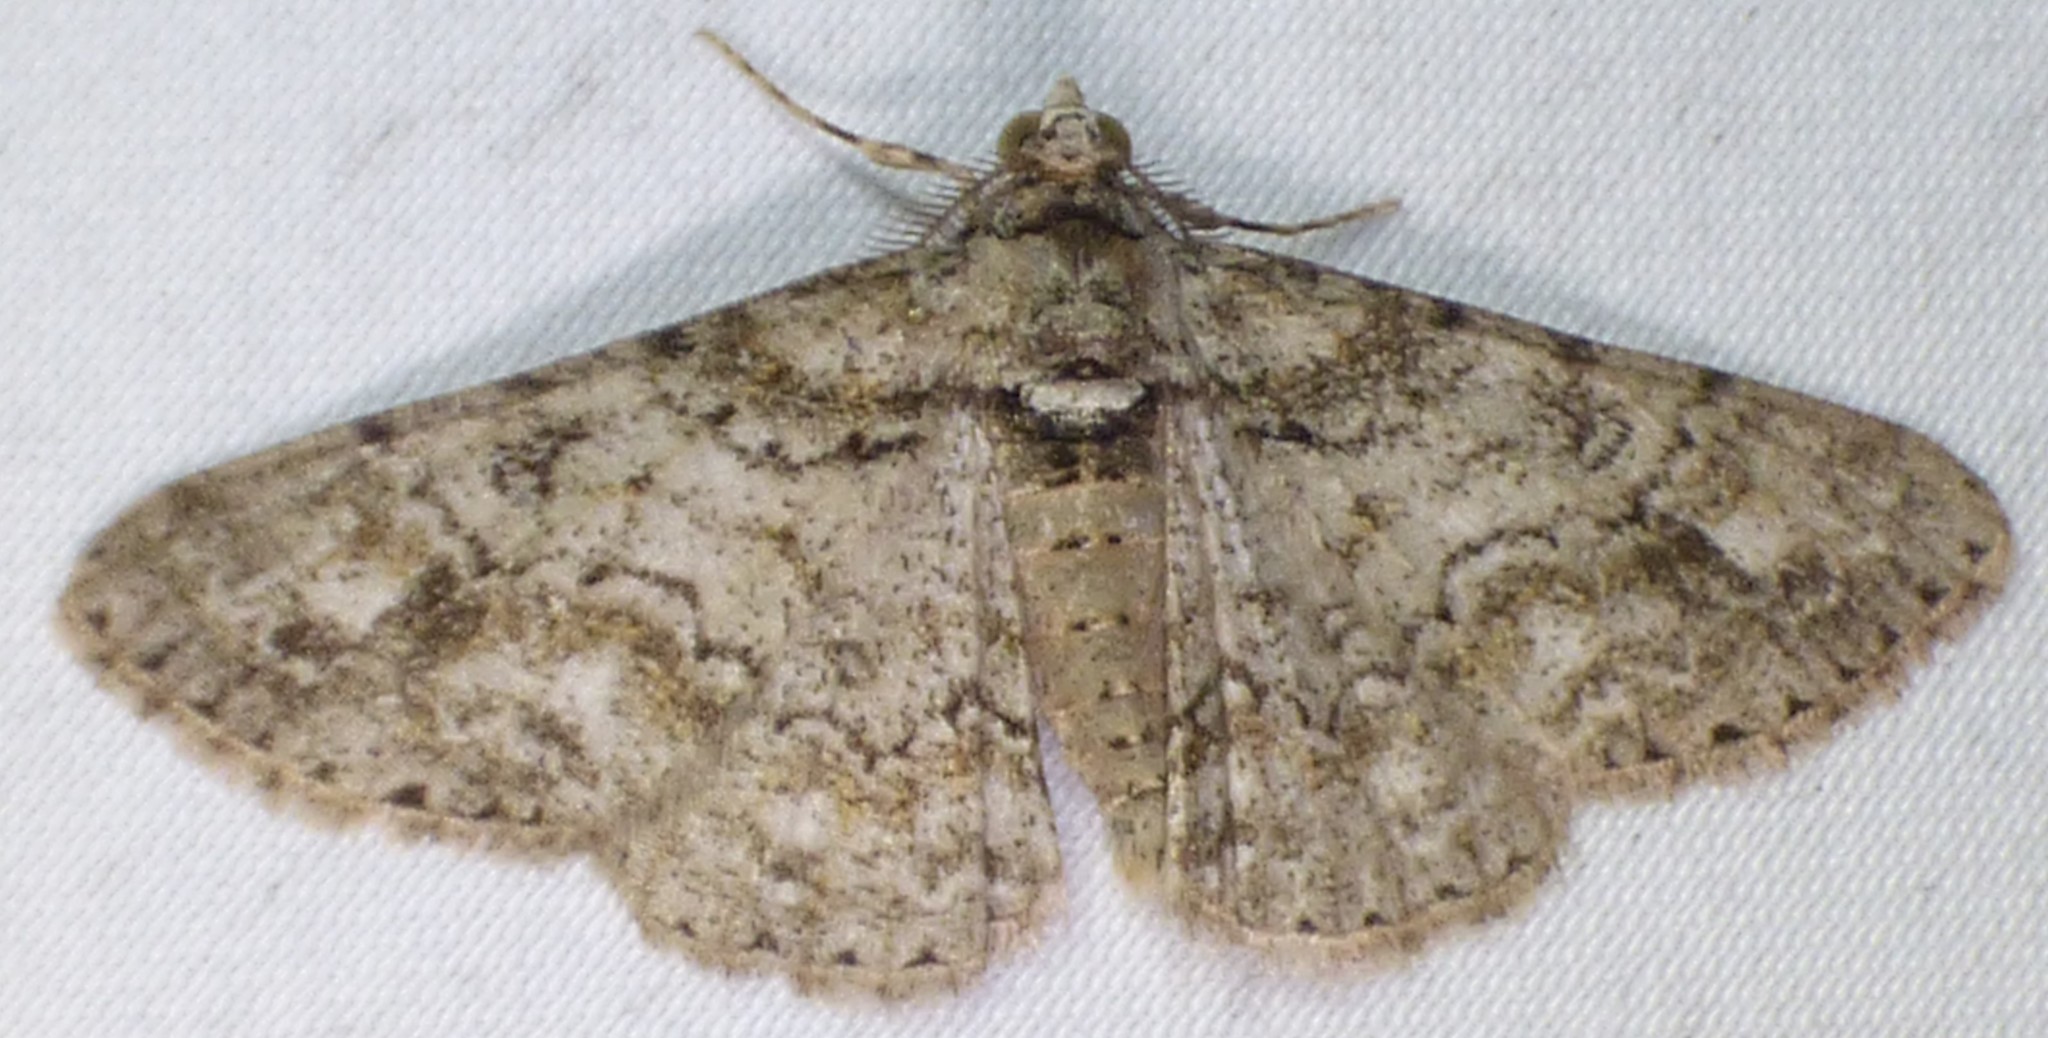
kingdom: Animalia
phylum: Arthropoda
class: Insecta
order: Lepidoptera
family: Geometridae
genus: Cleora
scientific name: Cleora sublunaria
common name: Double-lined gray
